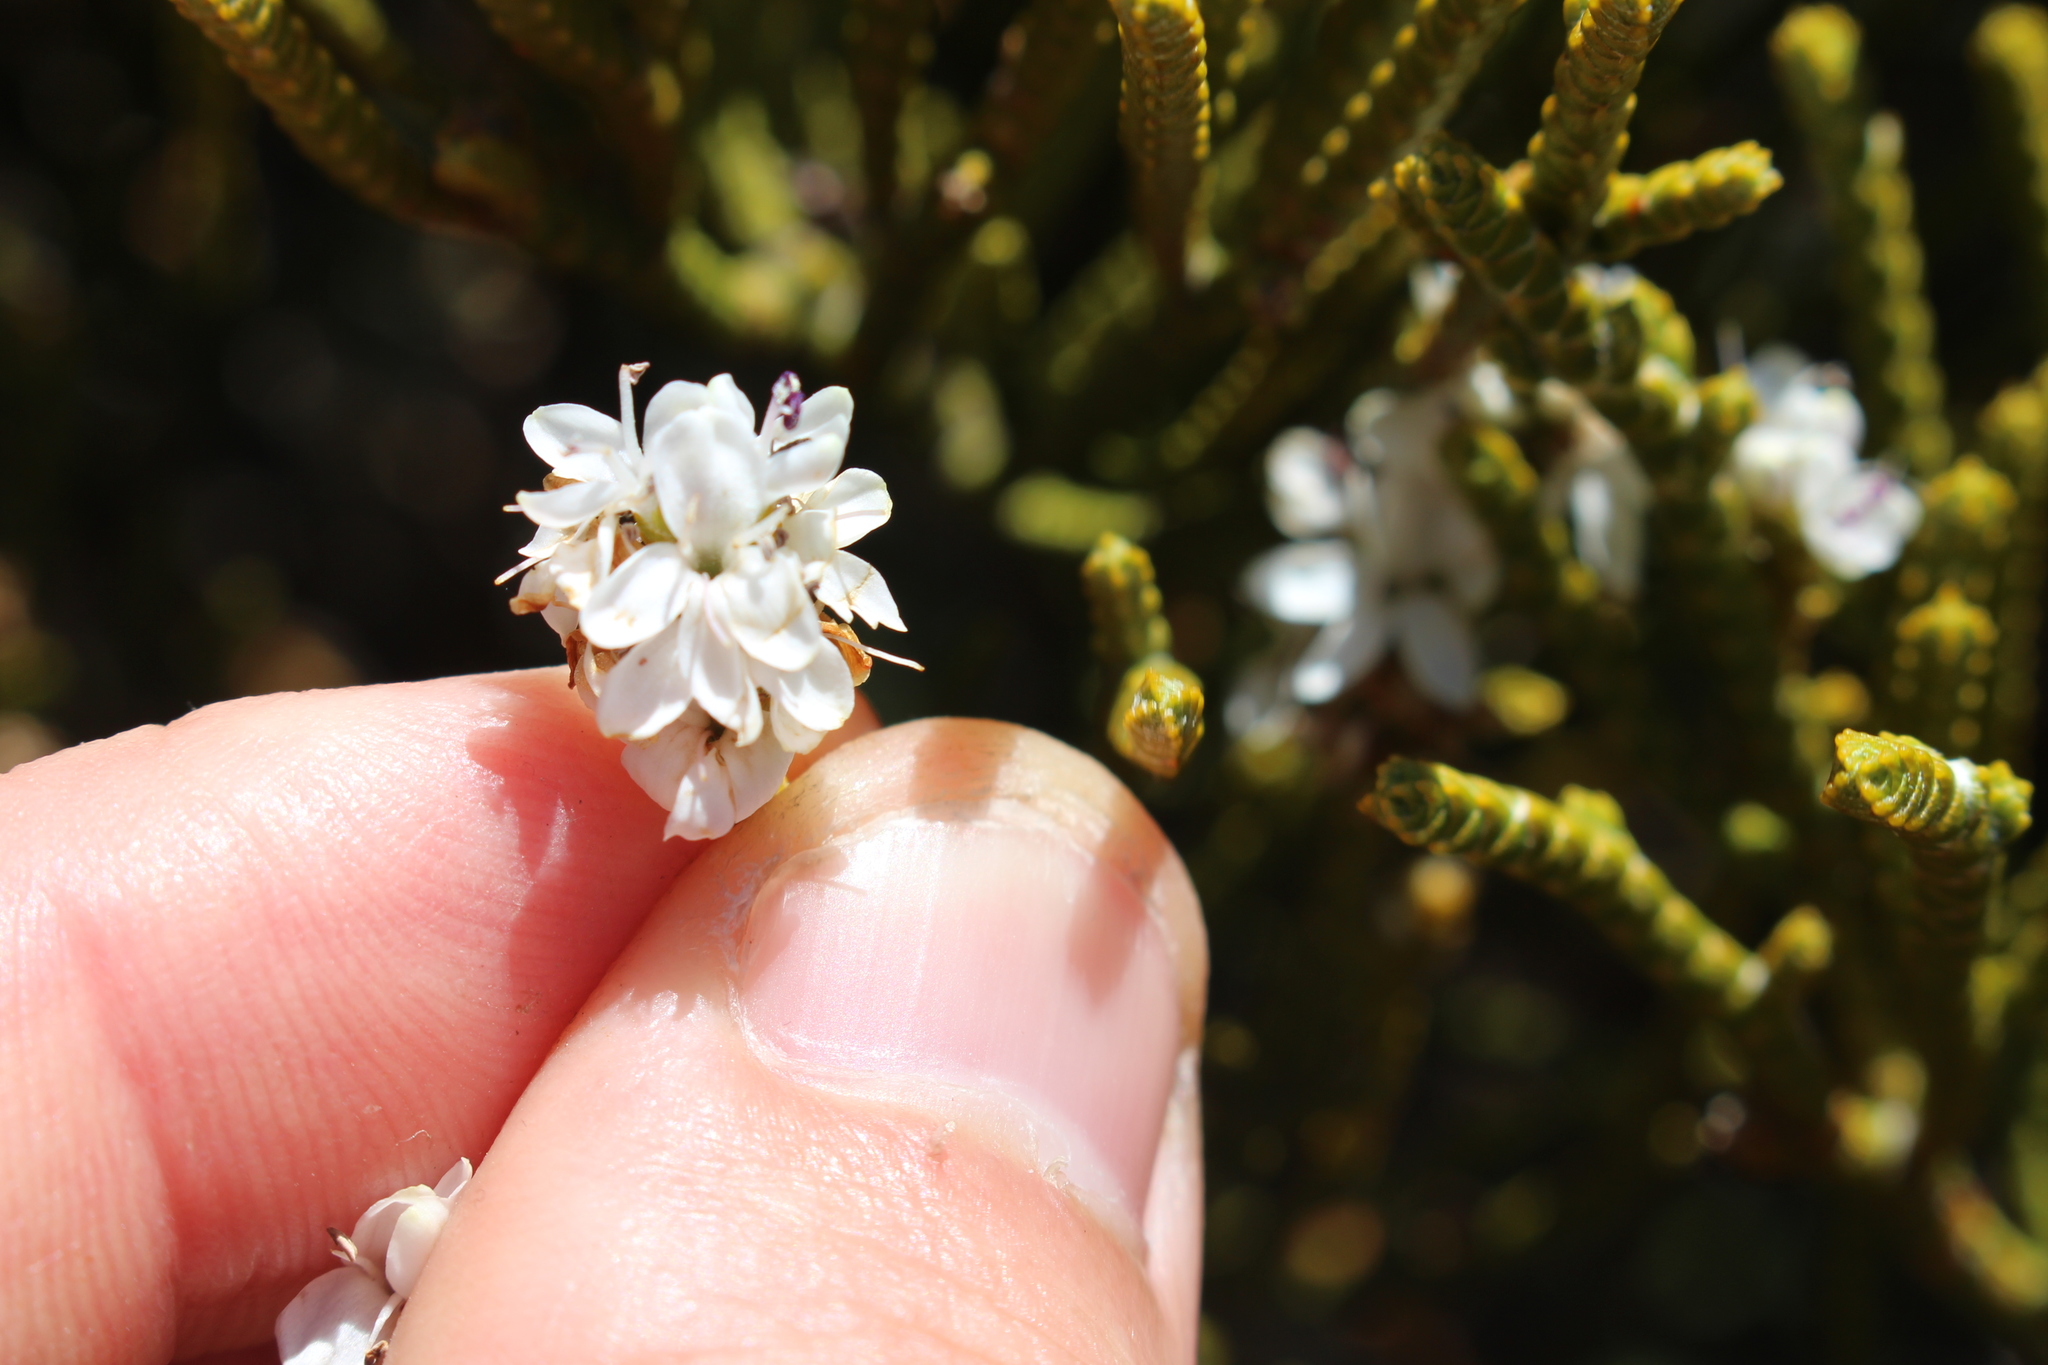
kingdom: Plantae
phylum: Tracheophyta
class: Magnoliopsida
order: Lamiales
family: Plantaginaceae
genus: Veronica
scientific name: Veronica lycopodioides
